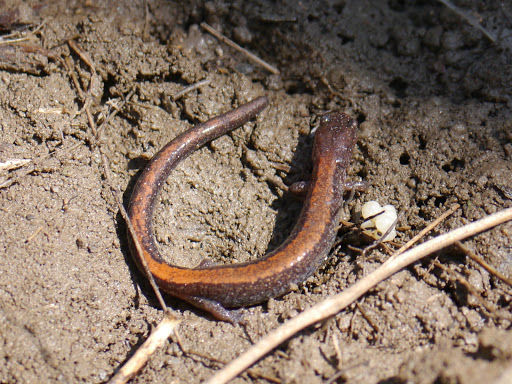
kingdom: Animalia
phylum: Chordata
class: Amphibia
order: Caudata
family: Plethodontidae
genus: Plethodon
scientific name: Plethodon cinereus
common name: Redback salamander
